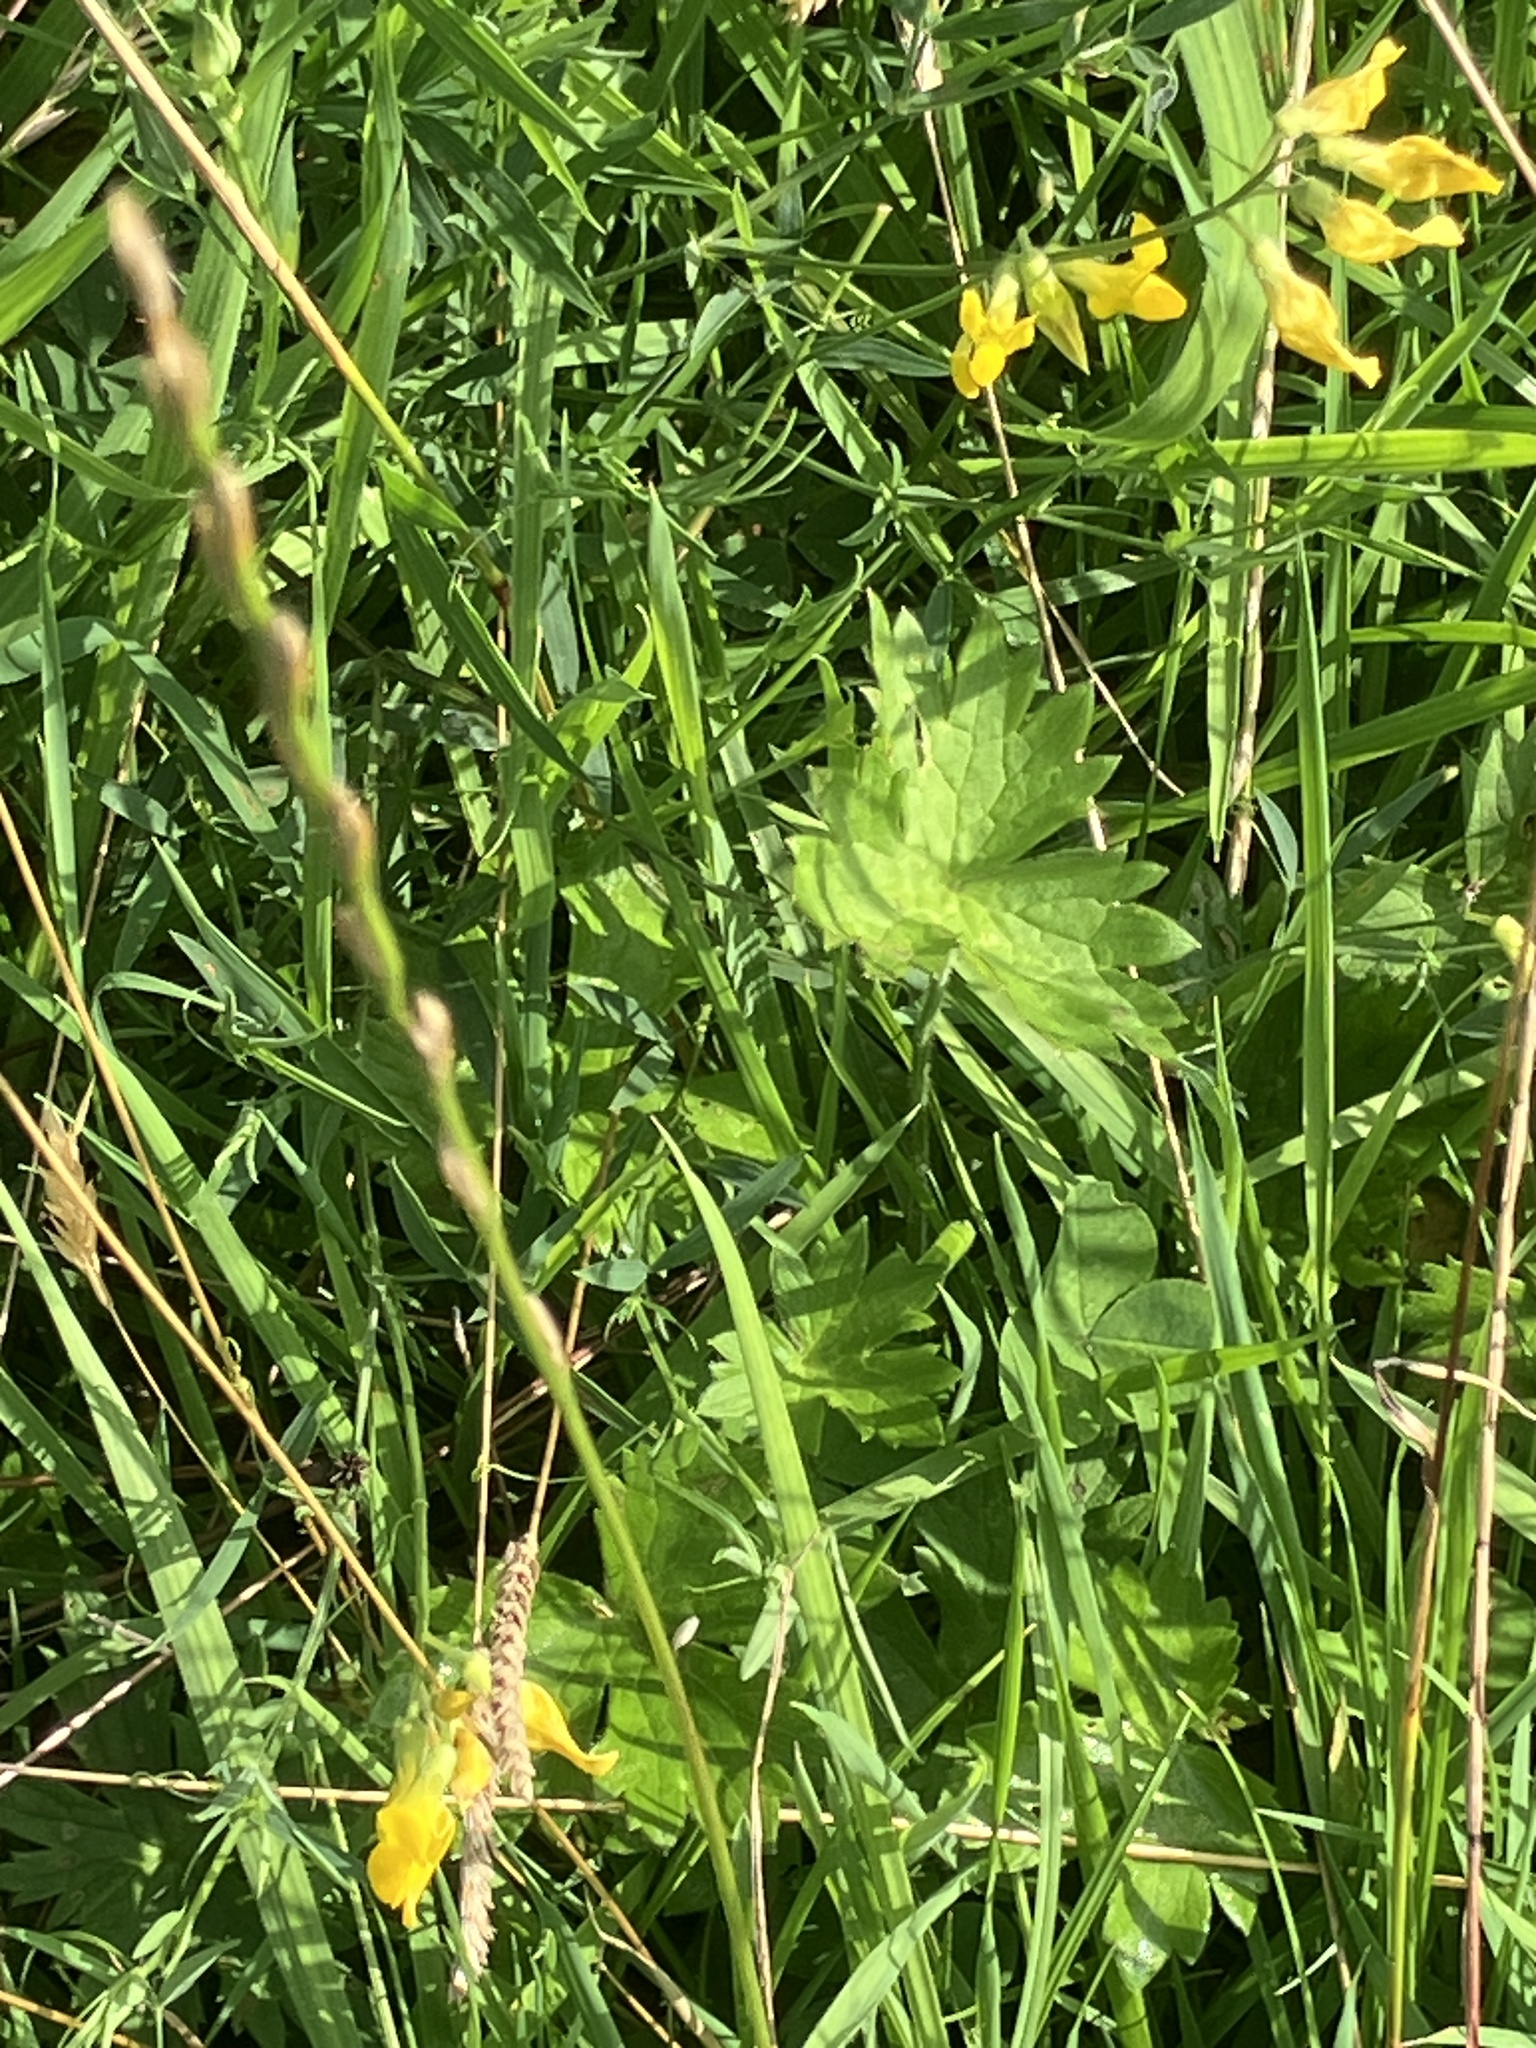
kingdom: Plantae
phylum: Tracheophyta
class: Magnoliopsida
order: Fabales
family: Fabaceae
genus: Lathyrus
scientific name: Lathyrus pratensis
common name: Meadow vetchling
